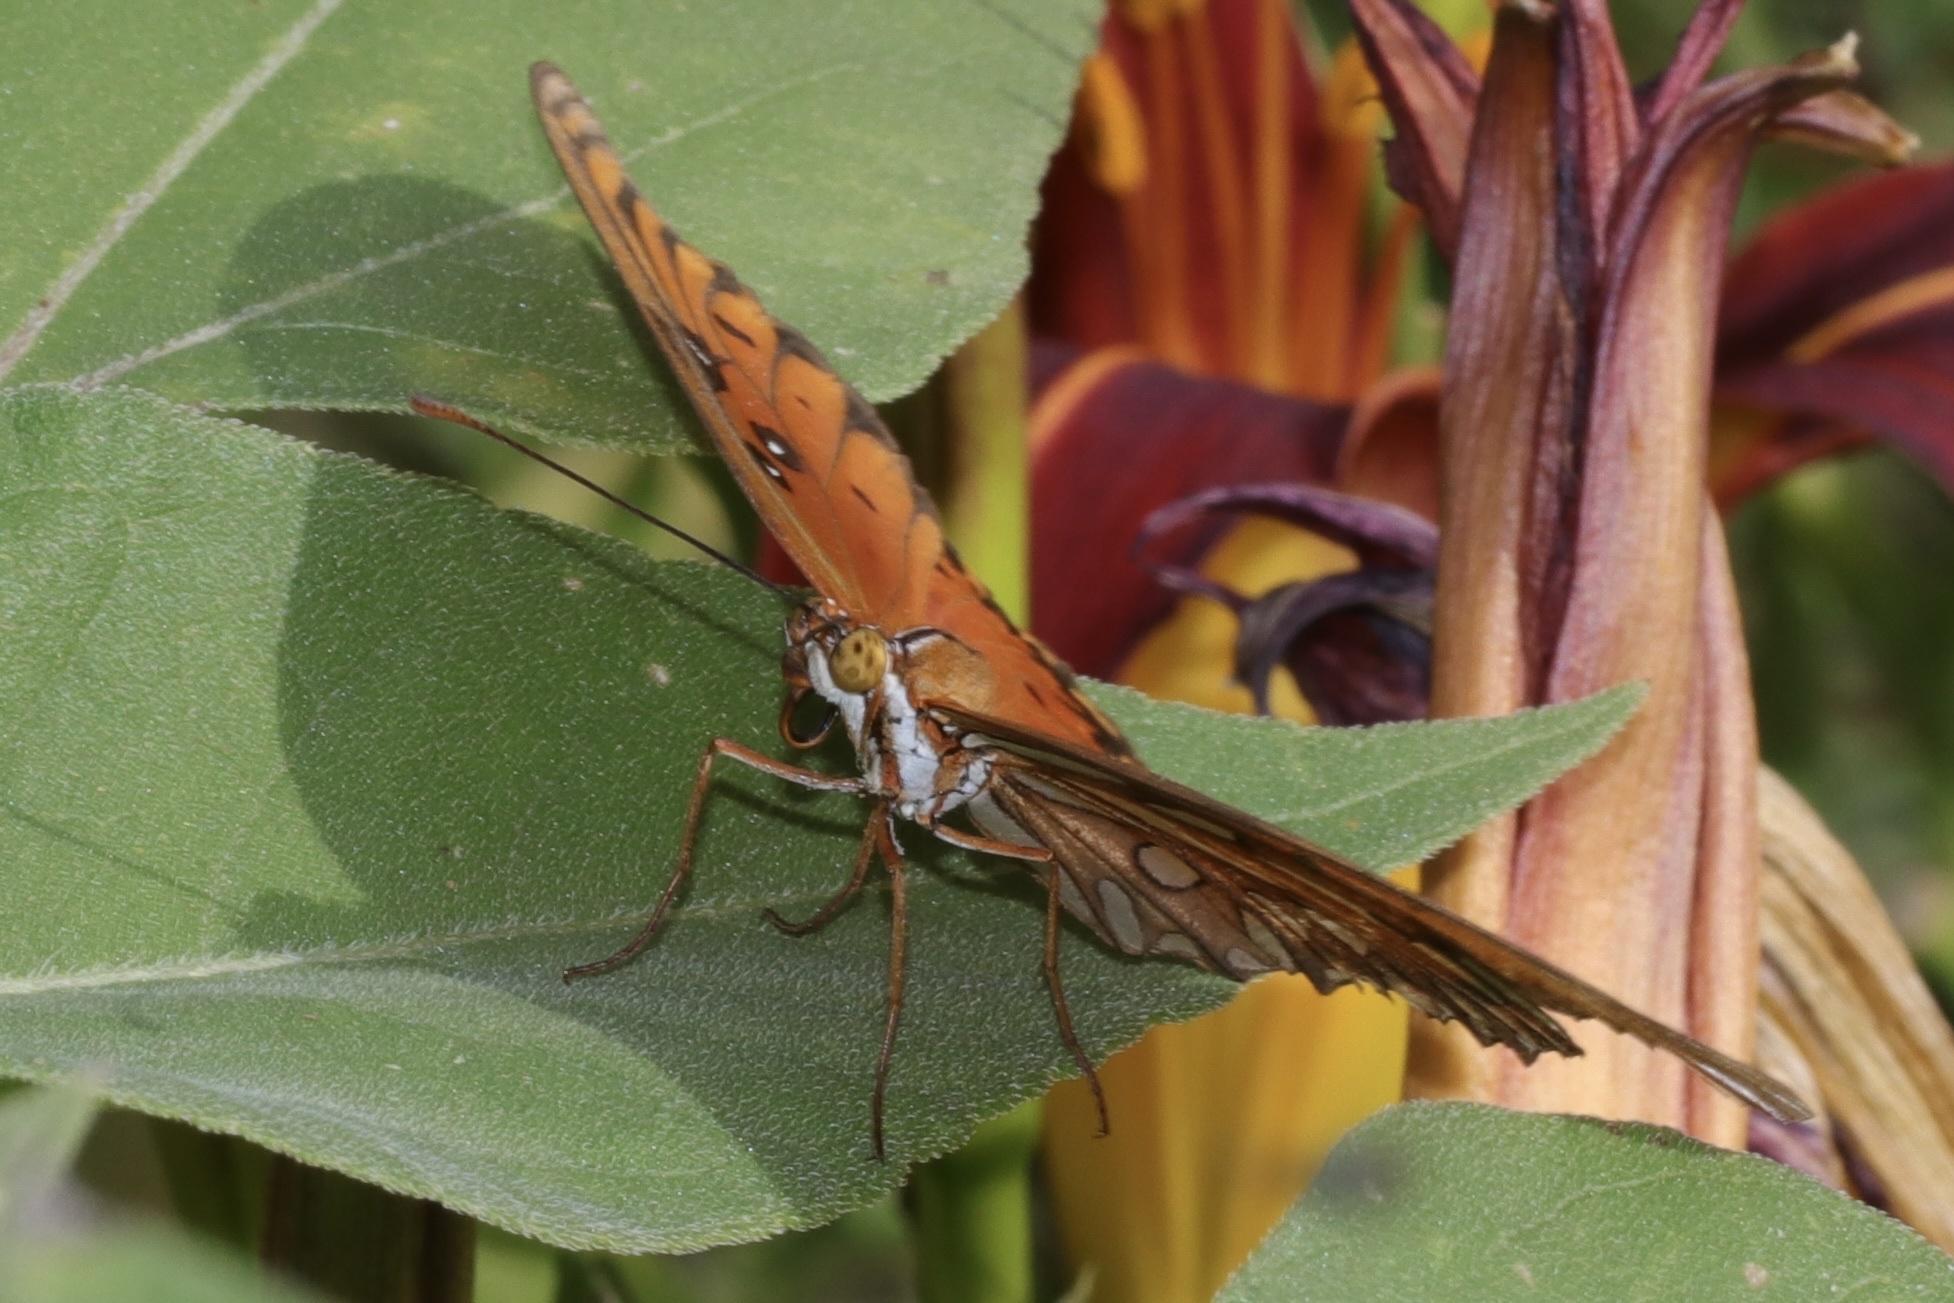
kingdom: Animalia
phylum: Arthropoda
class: Insecta
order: Lepidoptera
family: Nymphalidae
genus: Dione
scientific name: Dione vanillae
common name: Gulf fritillary
